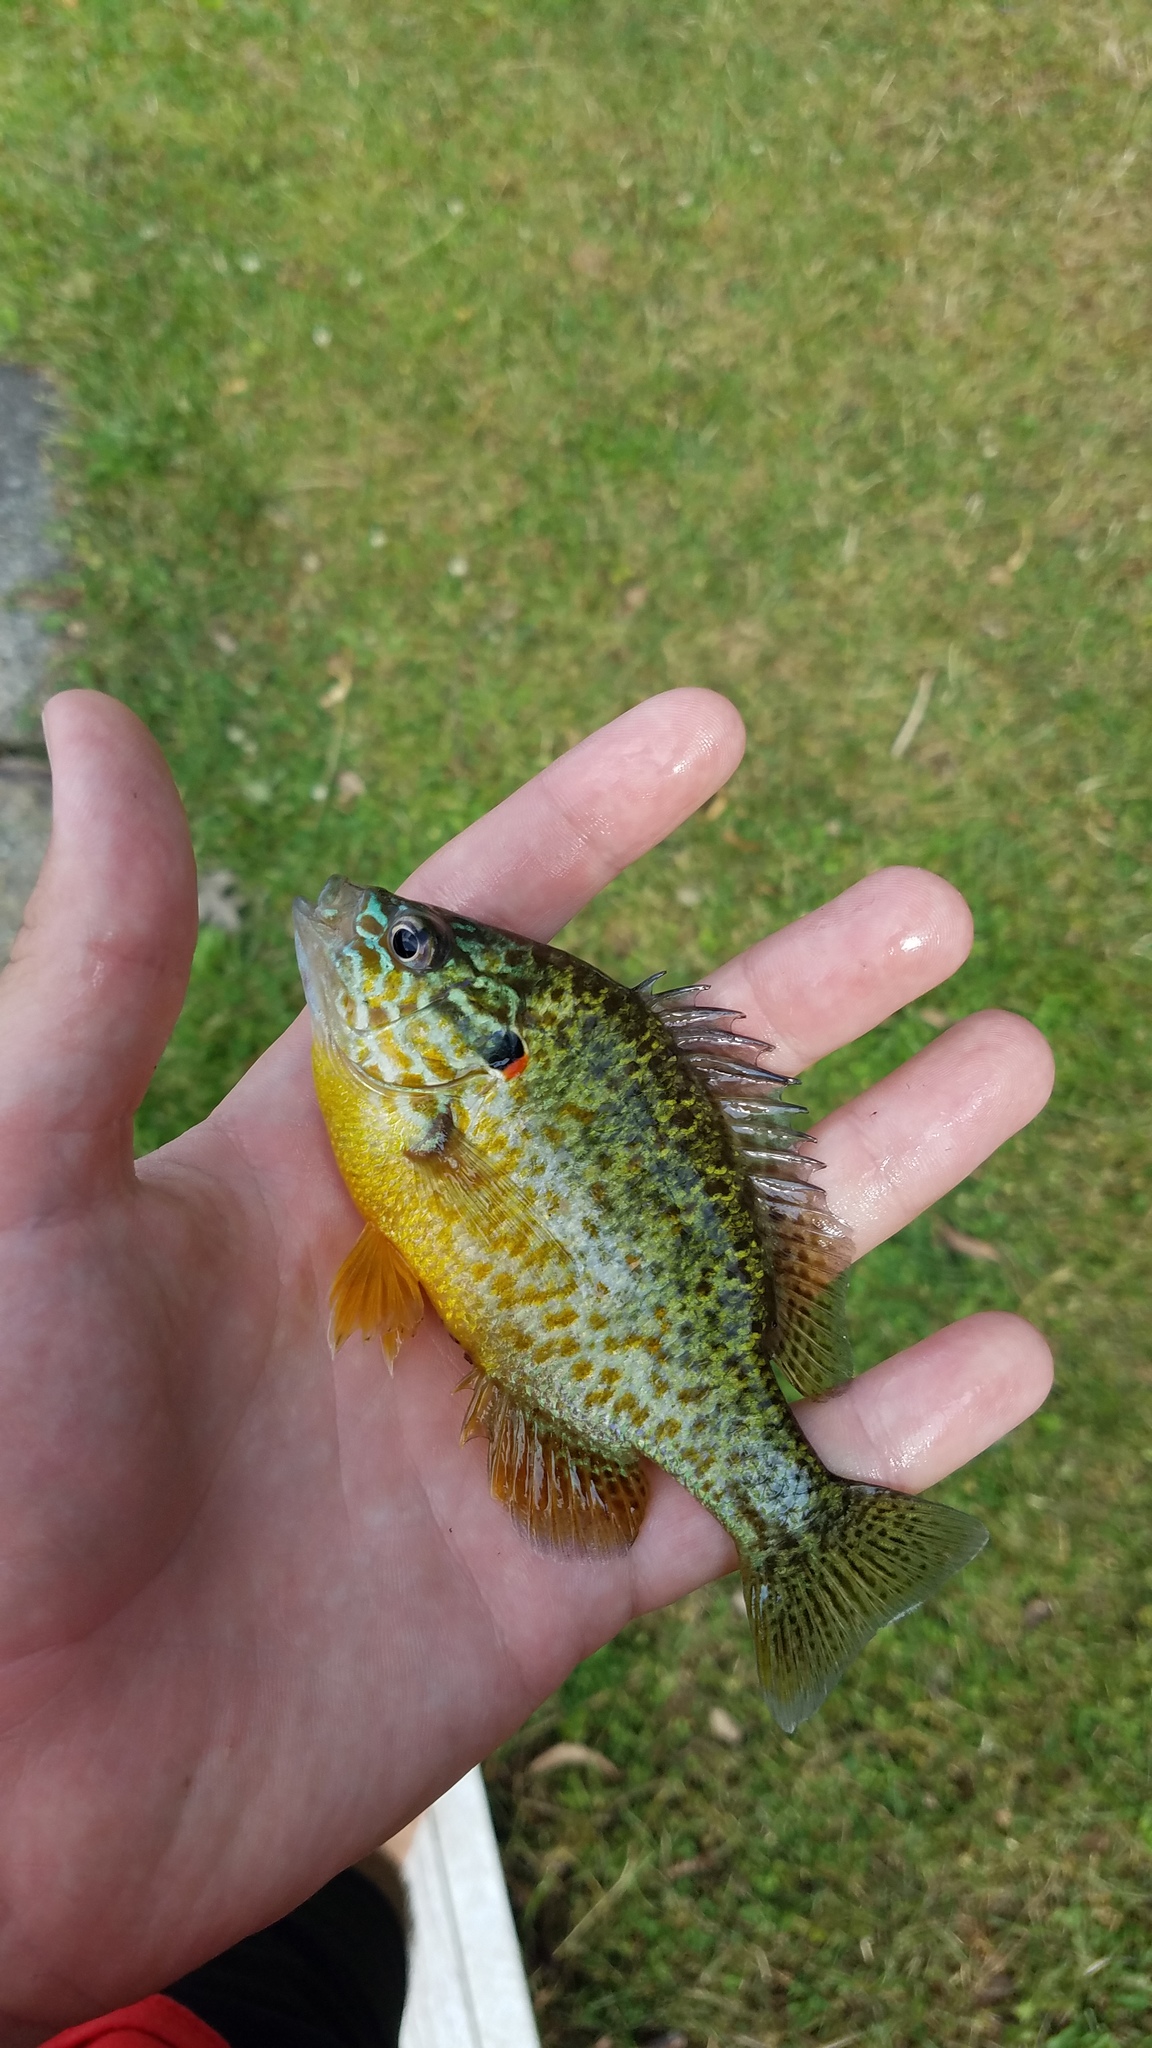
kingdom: Animalia
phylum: Chordata
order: Perciformes
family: Centrarchidae
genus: Lepomis
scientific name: Lepomis gibbosus
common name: Pumpkinseed
